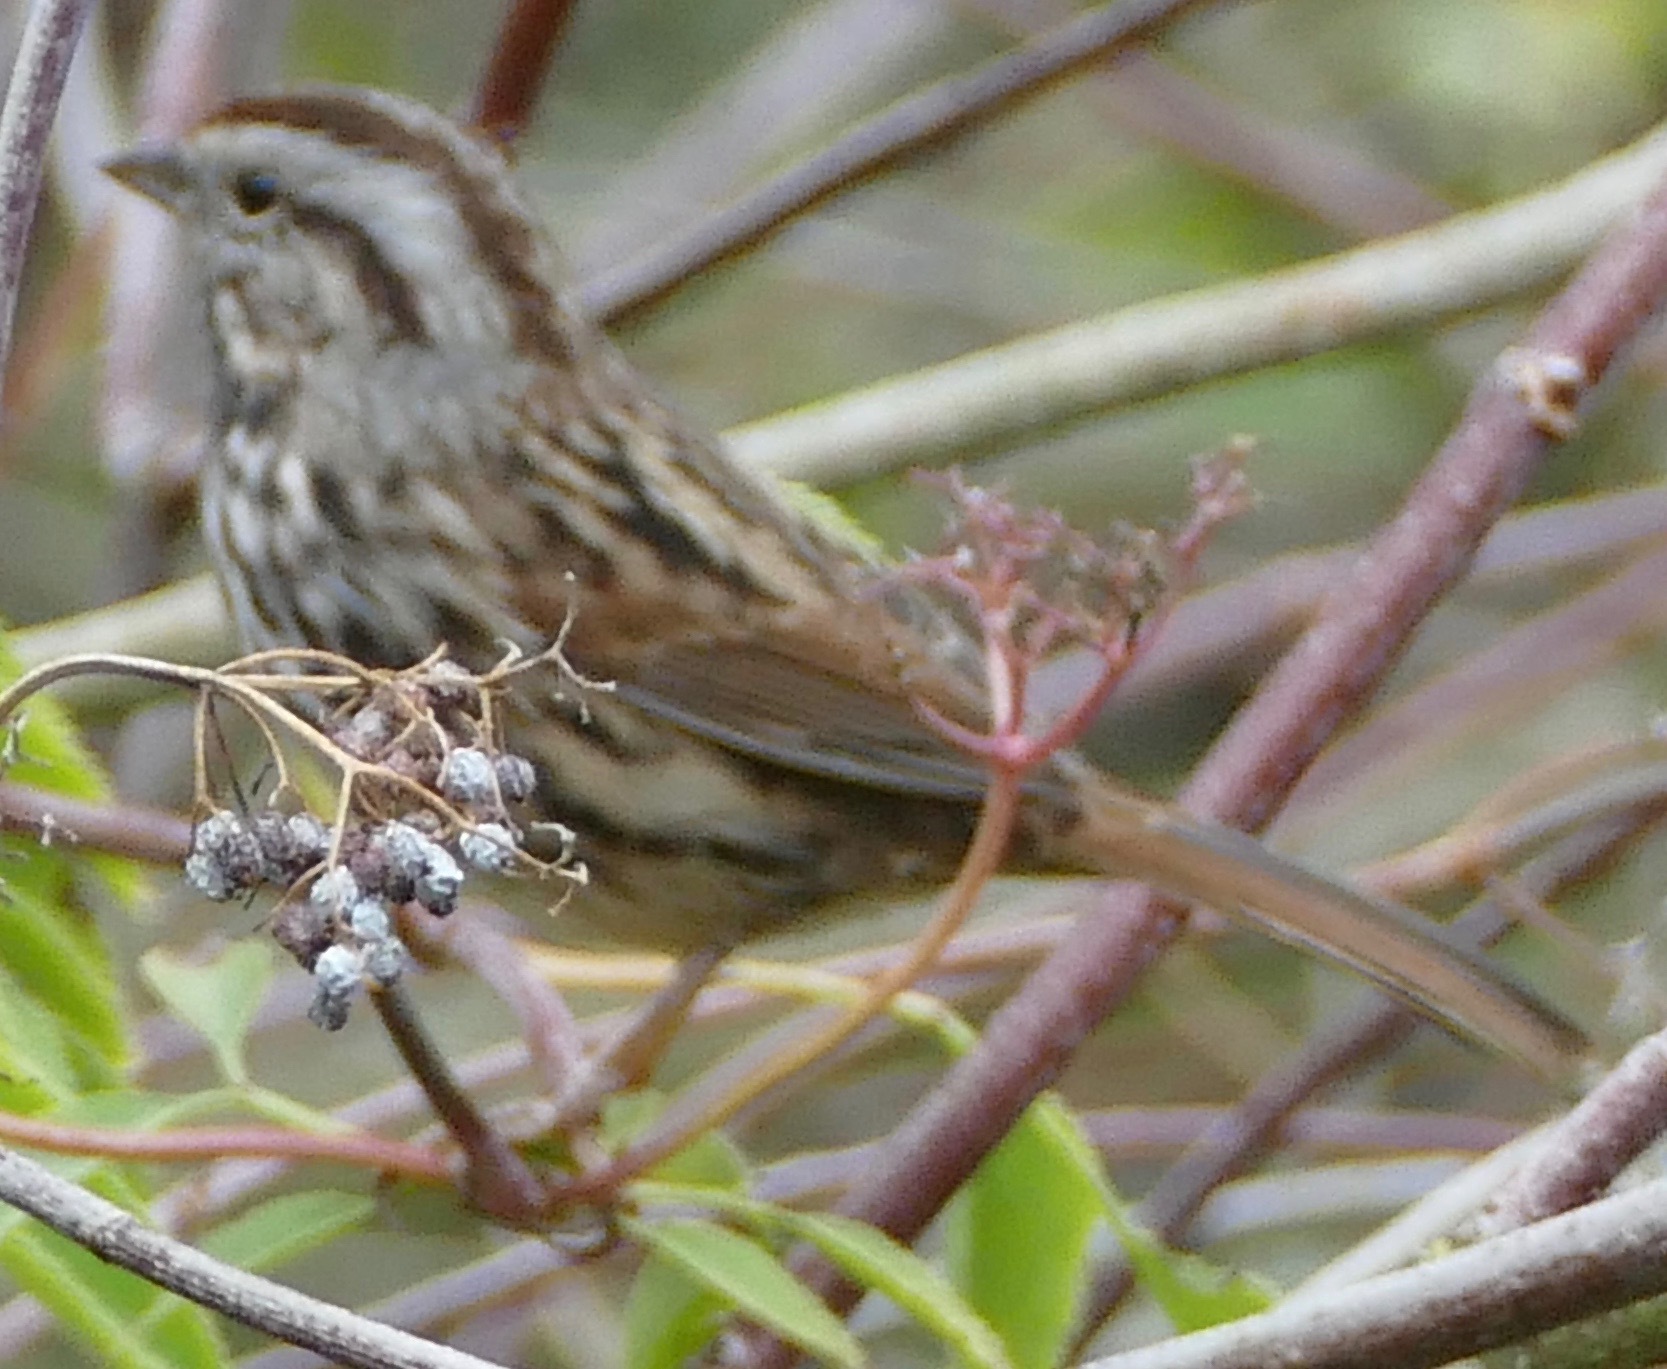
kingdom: Animalia
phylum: Chordata
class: Aves
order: Passeriformes
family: Passerellidae
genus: Melospiza
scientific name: Melospiza melodia
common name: Song sparrow
